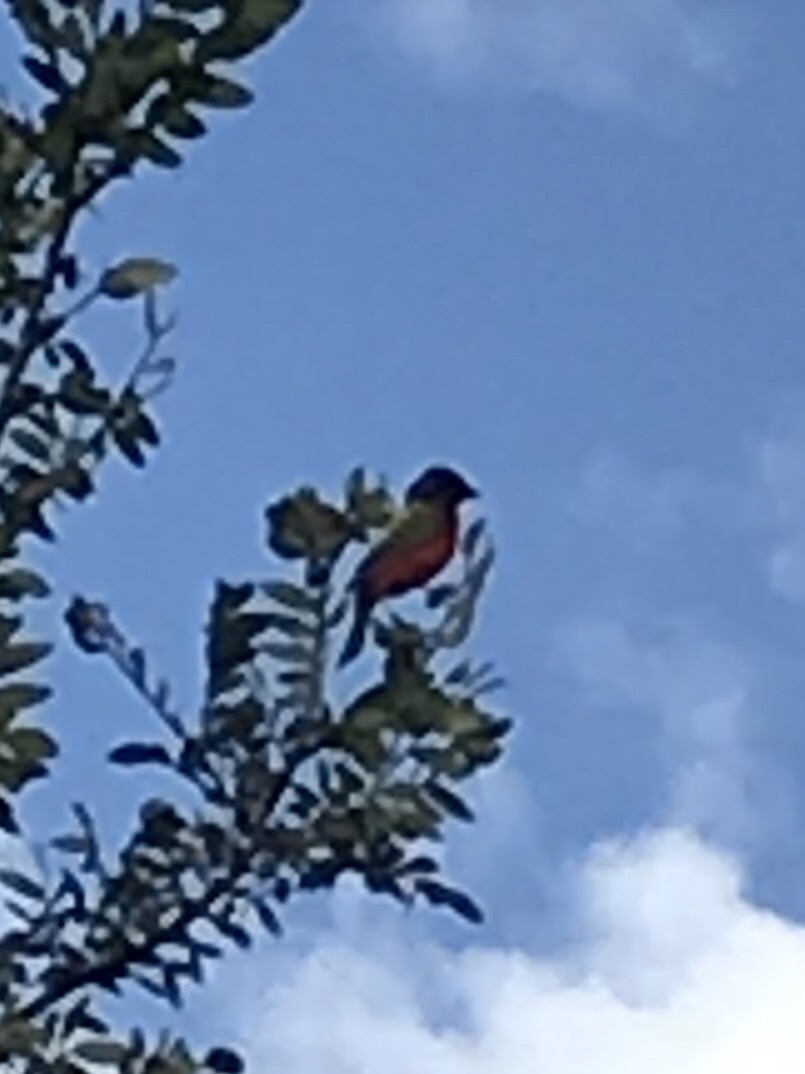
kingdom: Animalia
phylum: Chordata
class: Aves
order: Passeriformes
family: Cardinalidae
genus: Passerina
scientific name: Passerina ciris
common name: Painted bunting
